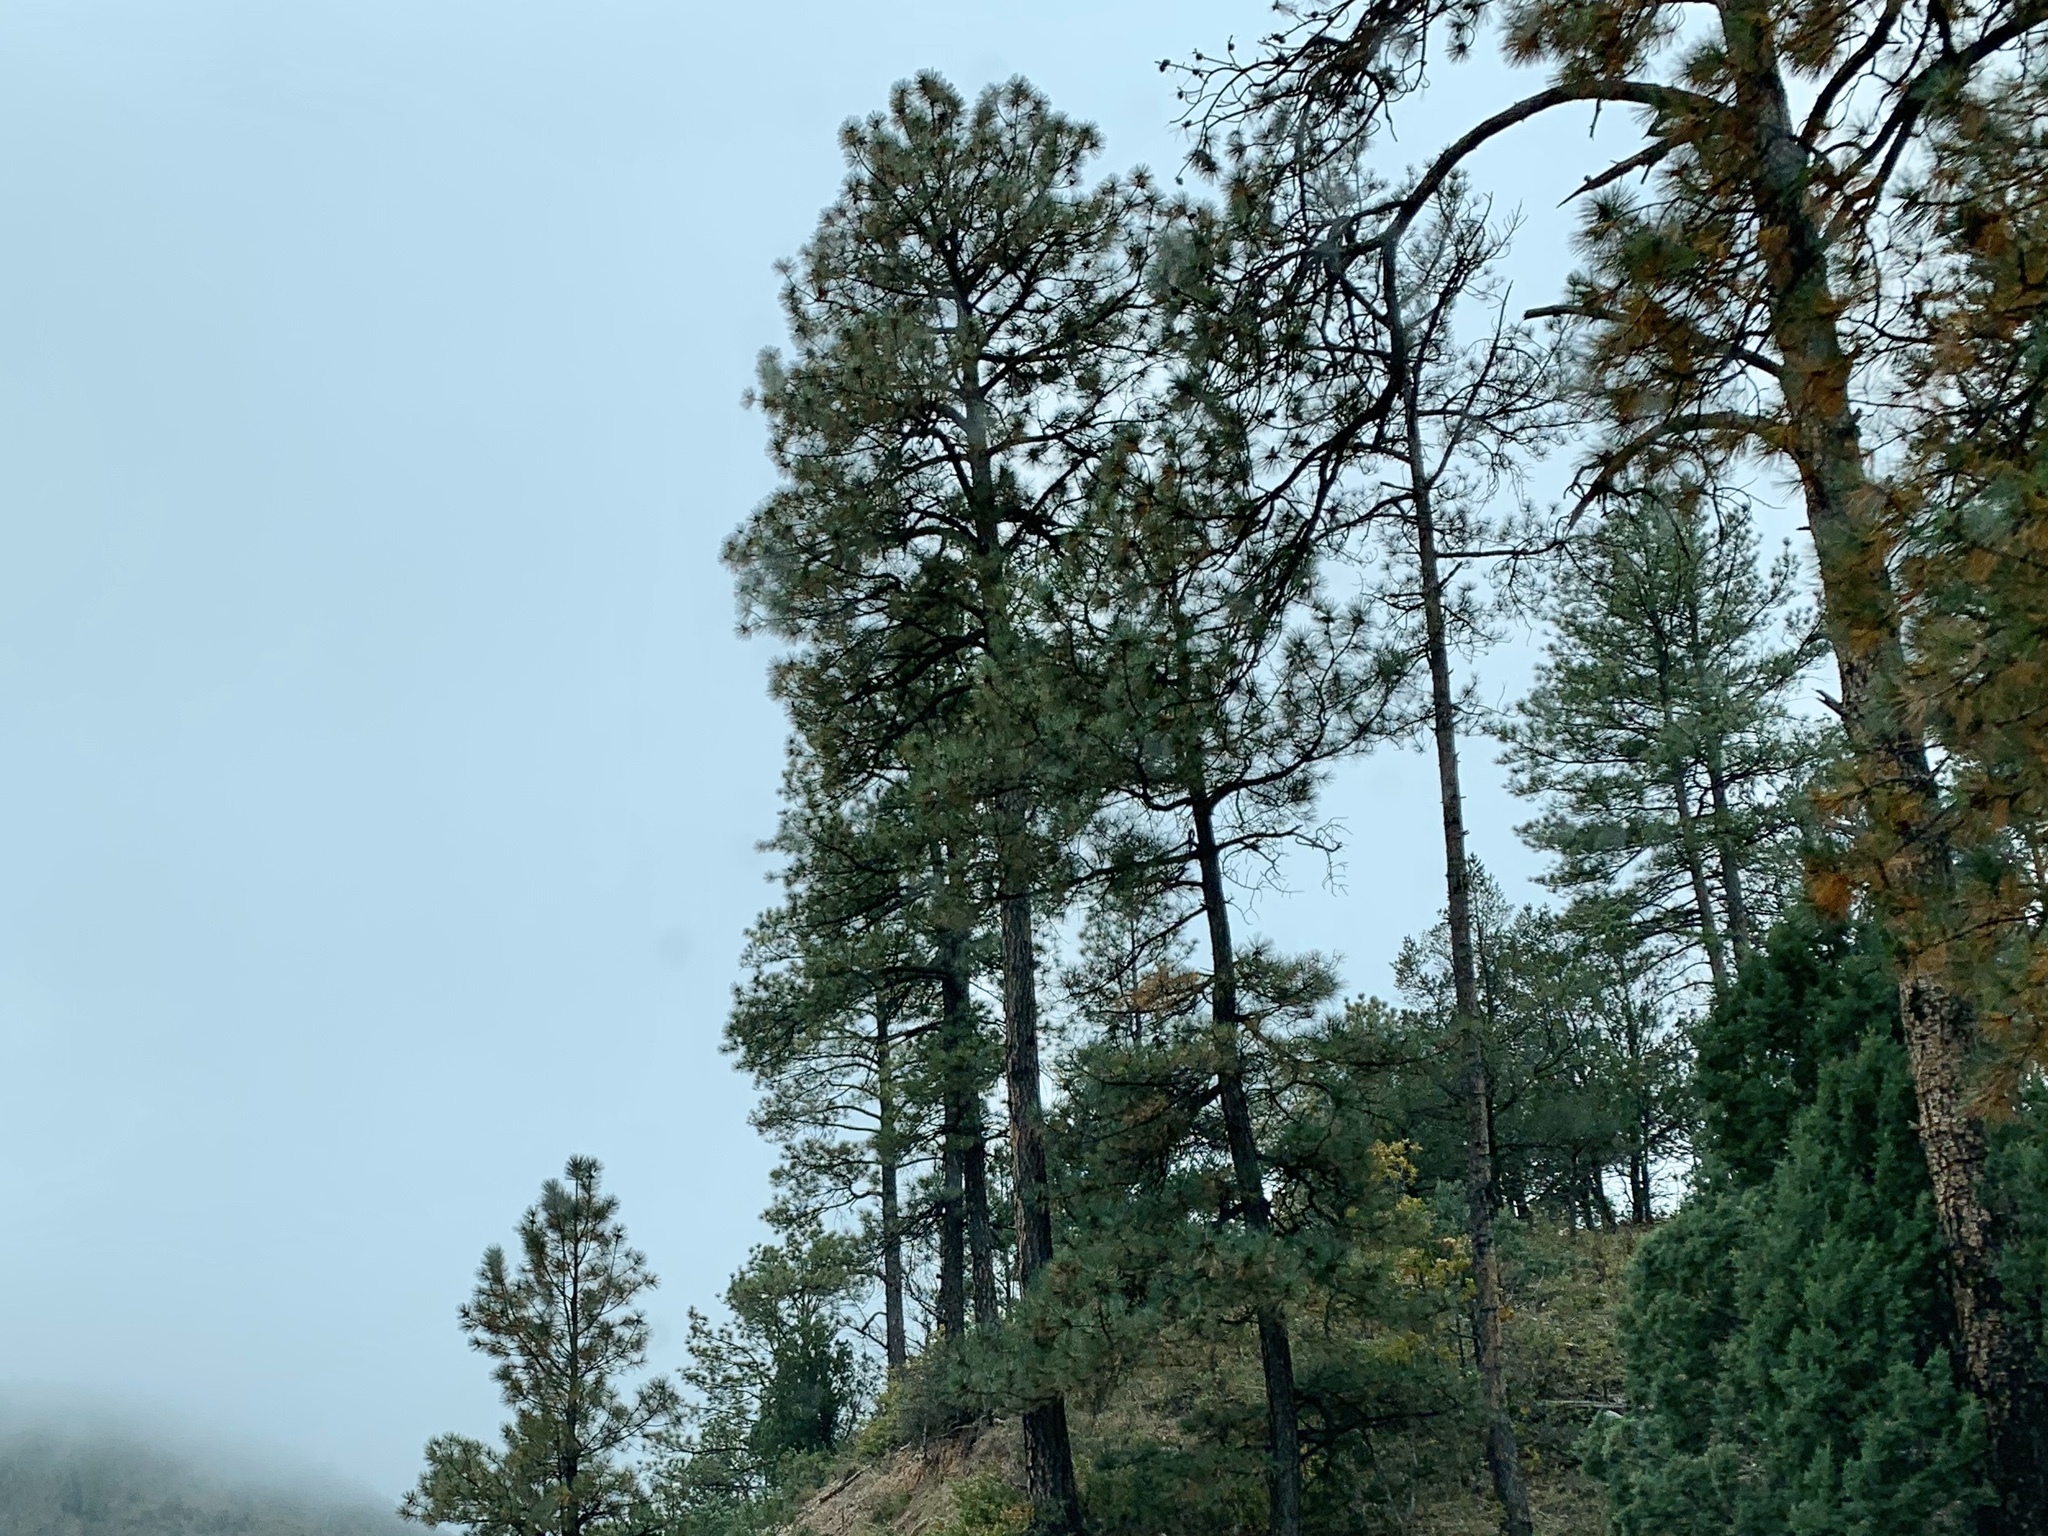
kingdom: Plantae
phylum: Tracheophyta
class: Pinopsida
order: Pinales
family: Pinaceae
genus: Pinus
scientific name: Pinus ponderosa
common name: Western yellow-pine
